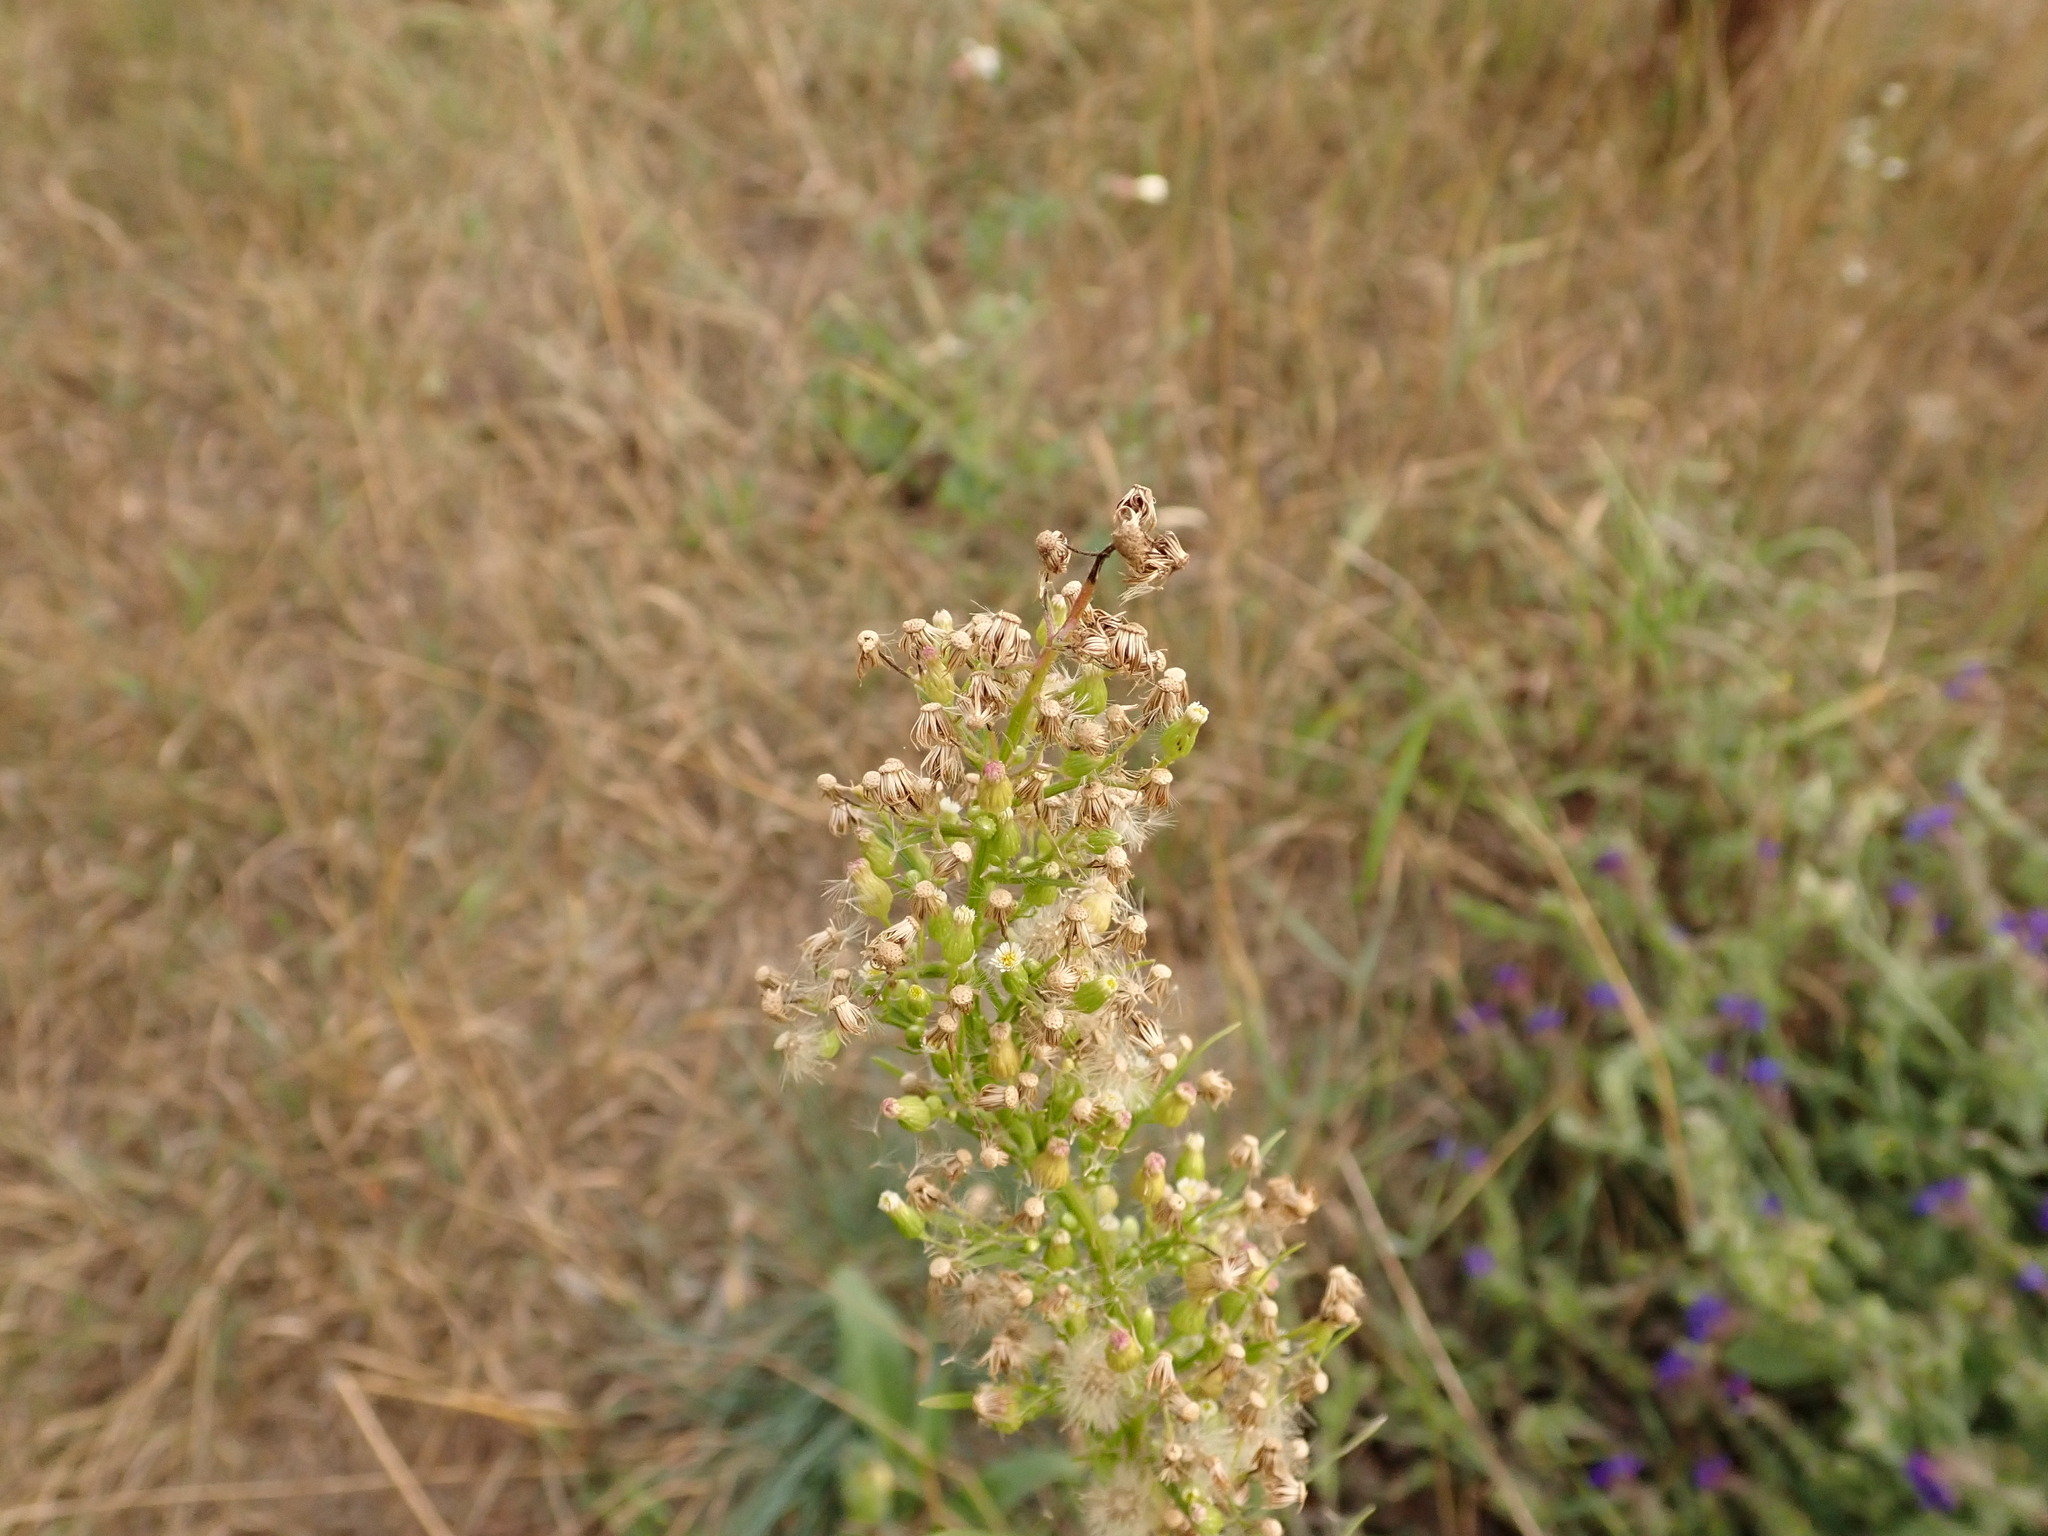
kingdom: Plantae
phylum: Tracheophyta
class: Magnoliopsida
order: Asterales
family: Asteraceae
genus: Erigeron
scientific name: Erigeron canadensis
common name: Canadian fleabane
